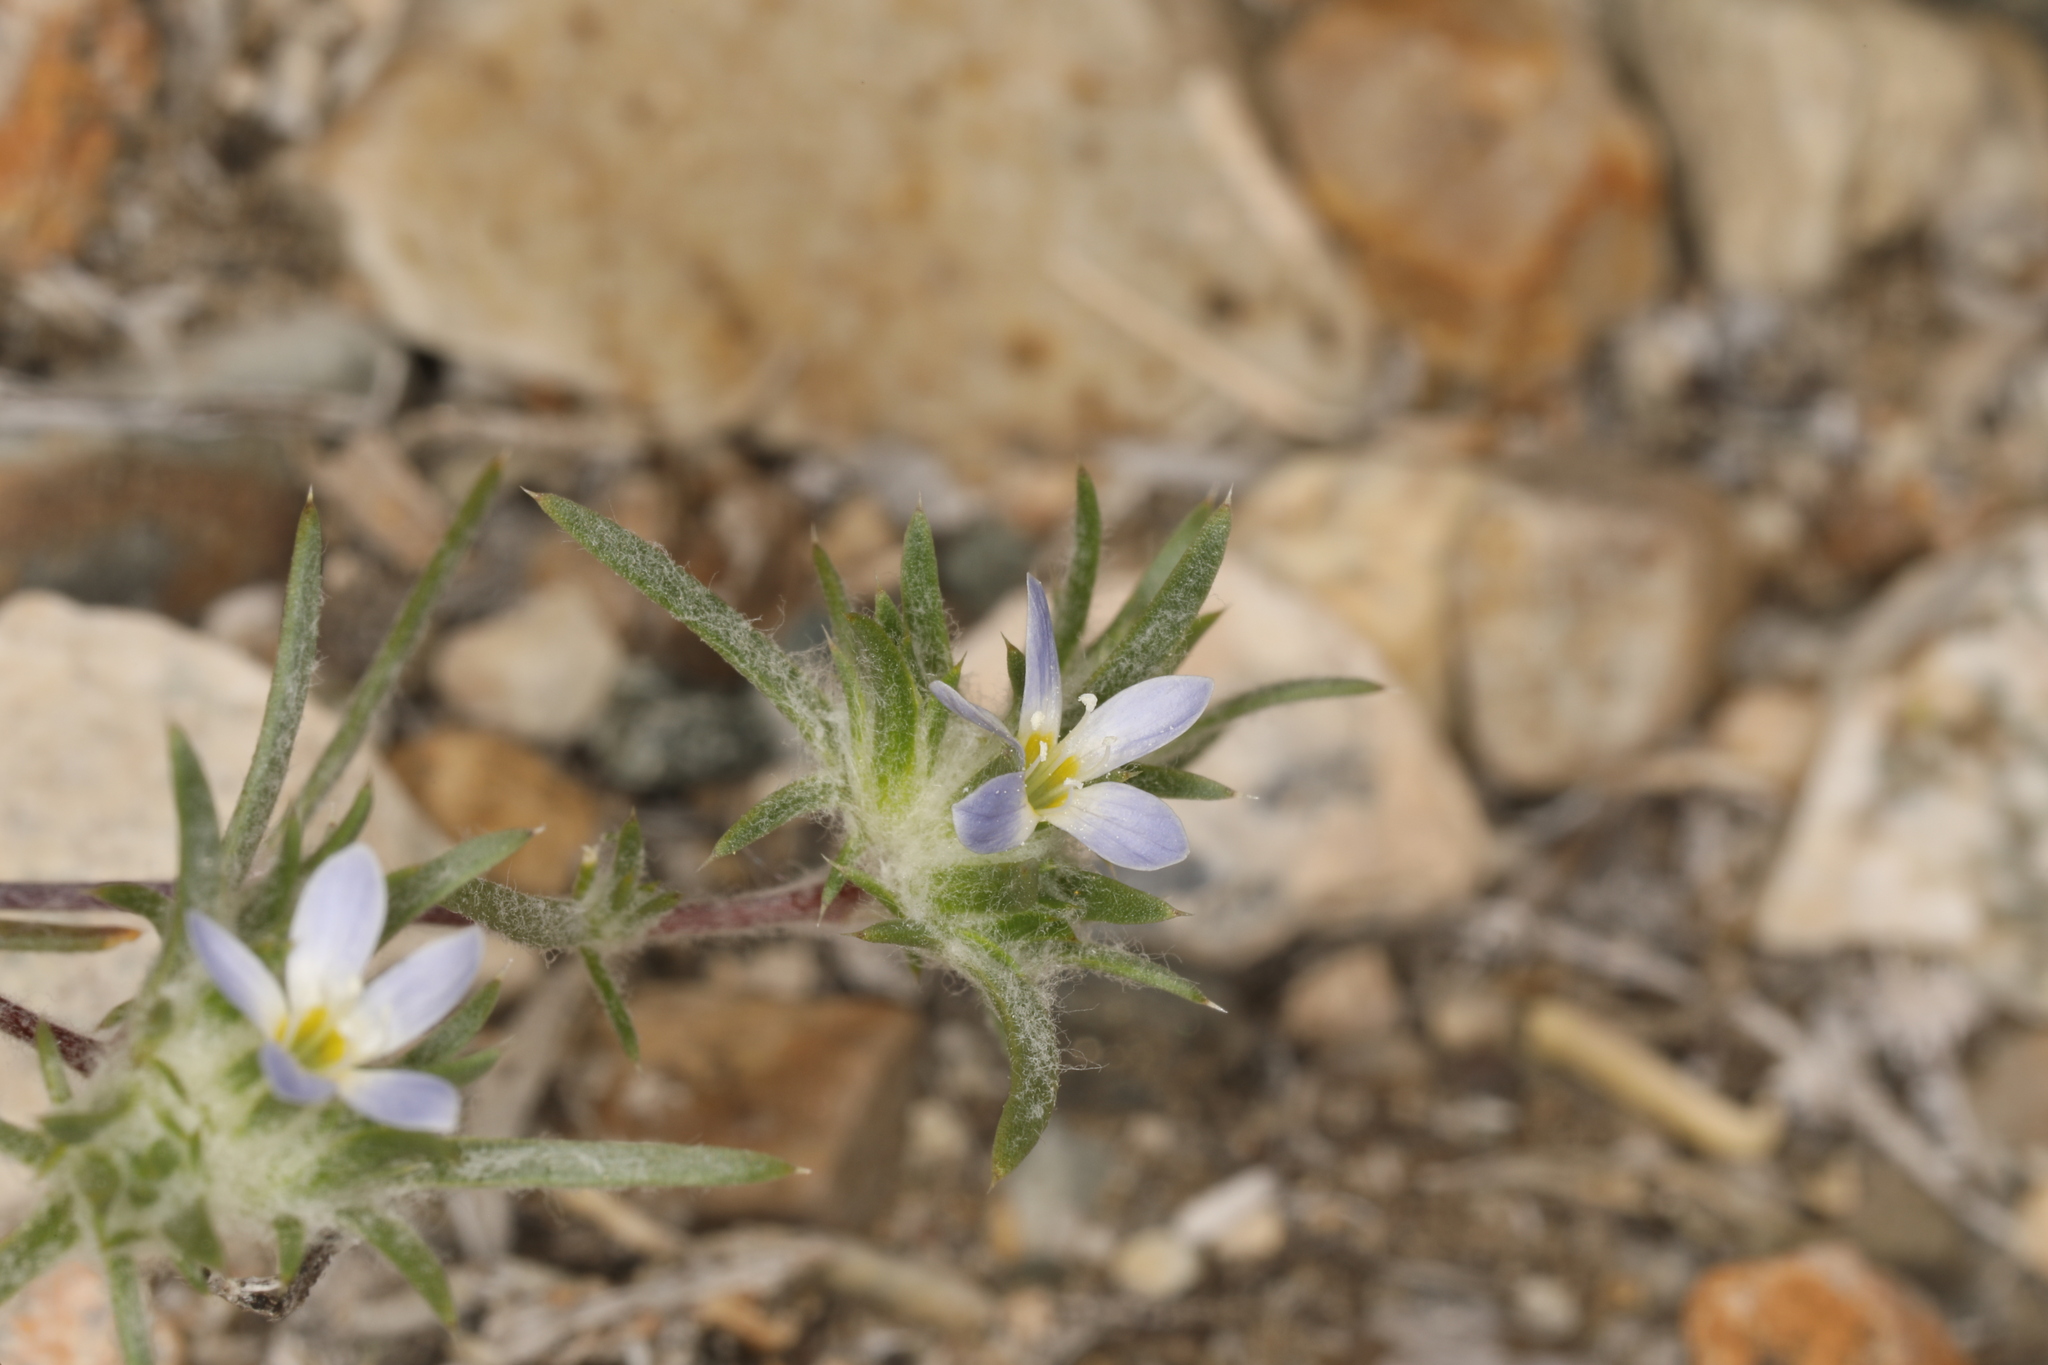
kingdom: Plantae
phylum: Tracheophyta
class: Magnoliopsida
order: Ericales
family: Polemoniaceae
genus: Eriastrum
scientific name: Eriastrum diffusum
